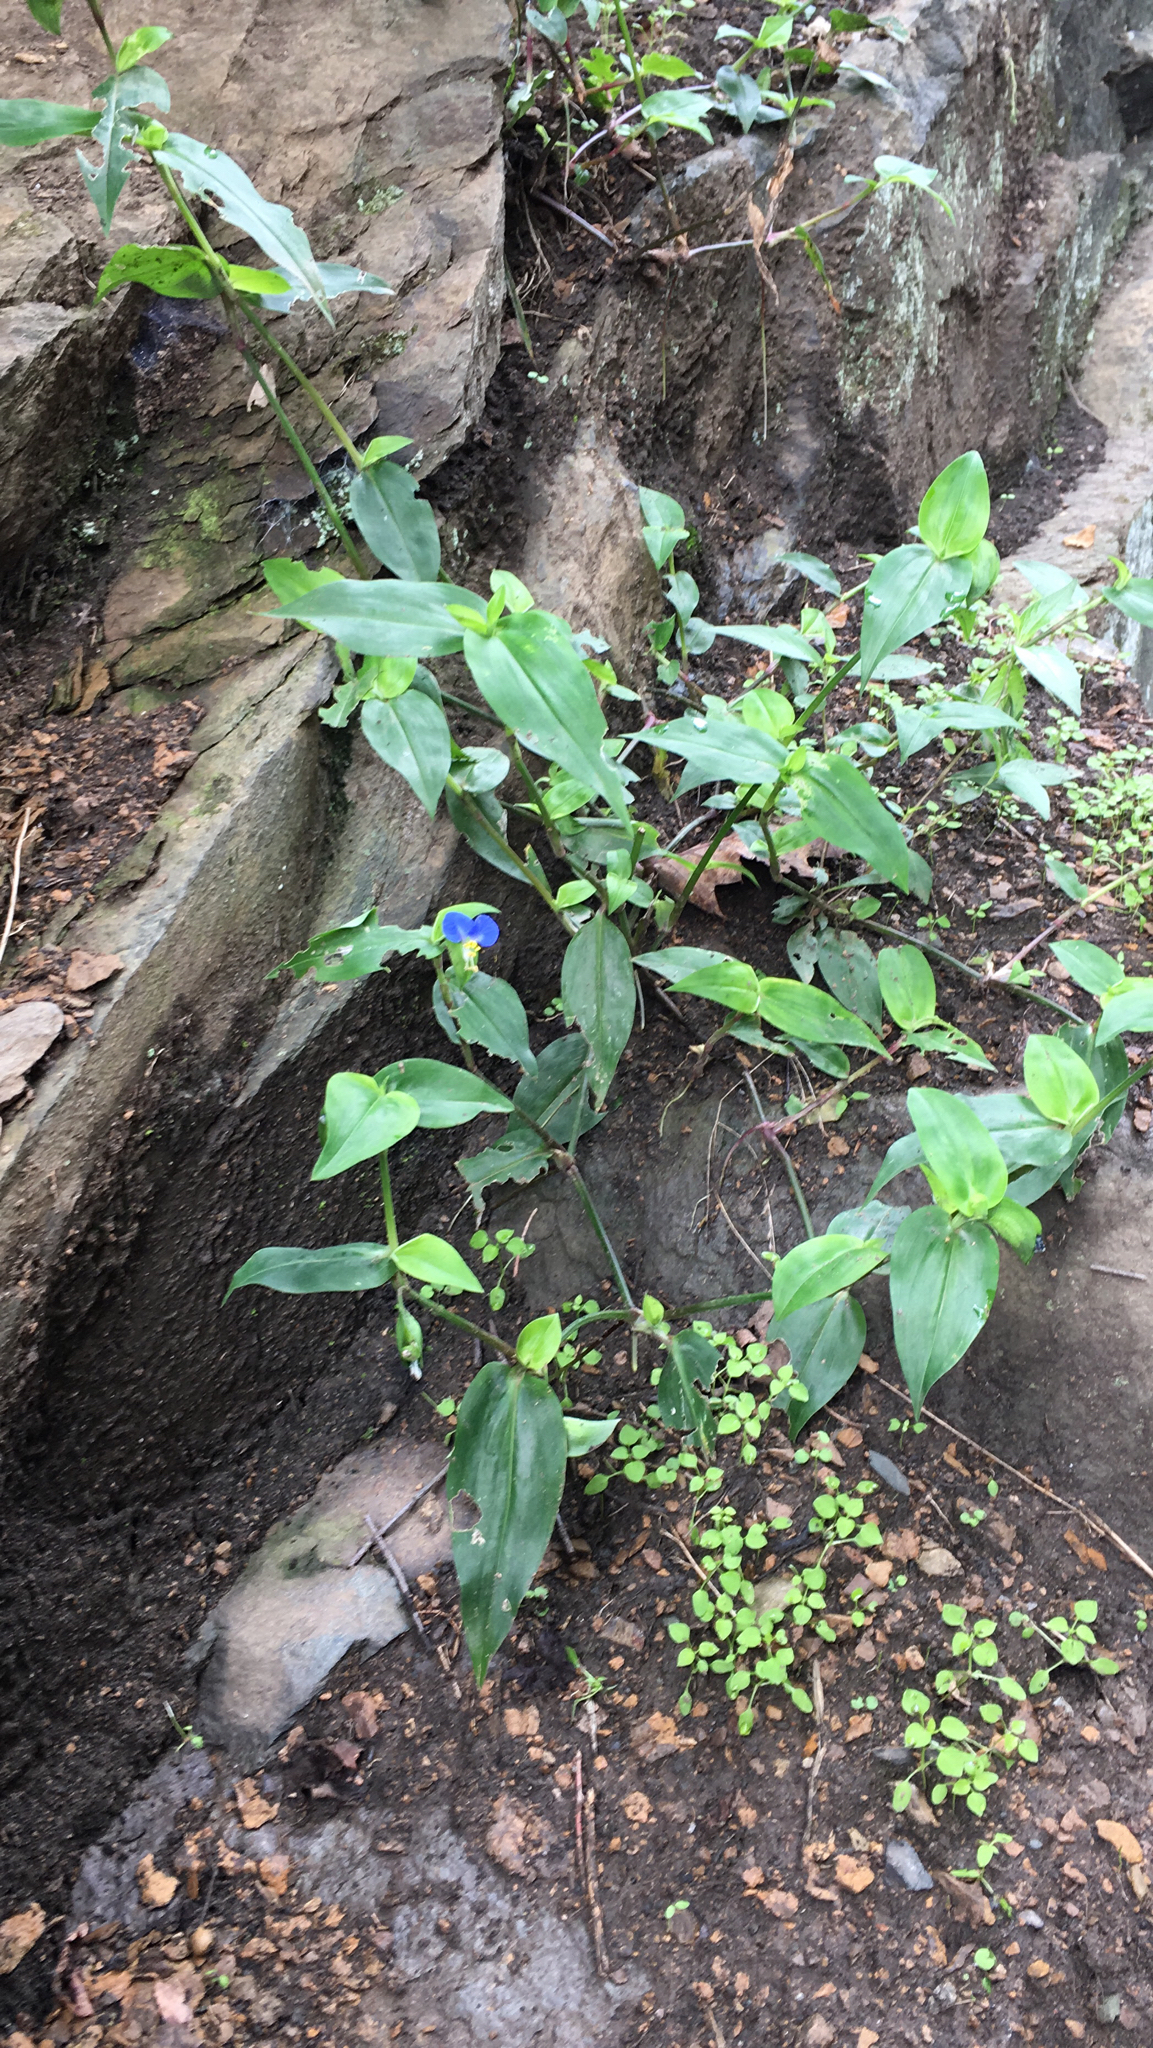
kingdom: Plantae
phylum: Tracheophyta
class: Liliopsida
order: Commelinales
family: Commelinaceae
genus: Commelina
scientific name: Commelina communis
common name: Asiatic dayflower
